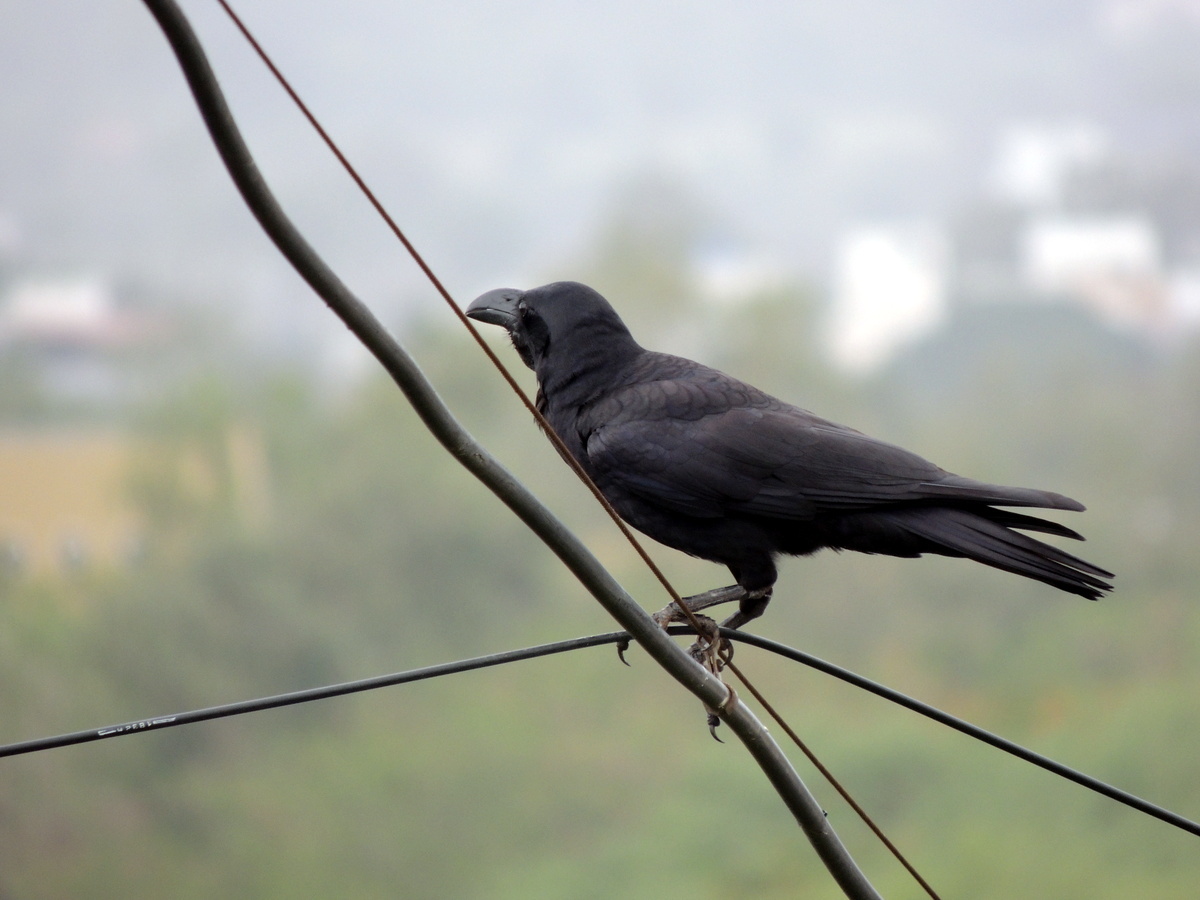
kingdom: Animalia
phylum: Chordata
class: Aves
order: Passeriformes
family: Corvidae
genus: Corvus
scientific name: Corvus macrorhynchos
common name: Large-billed crow
